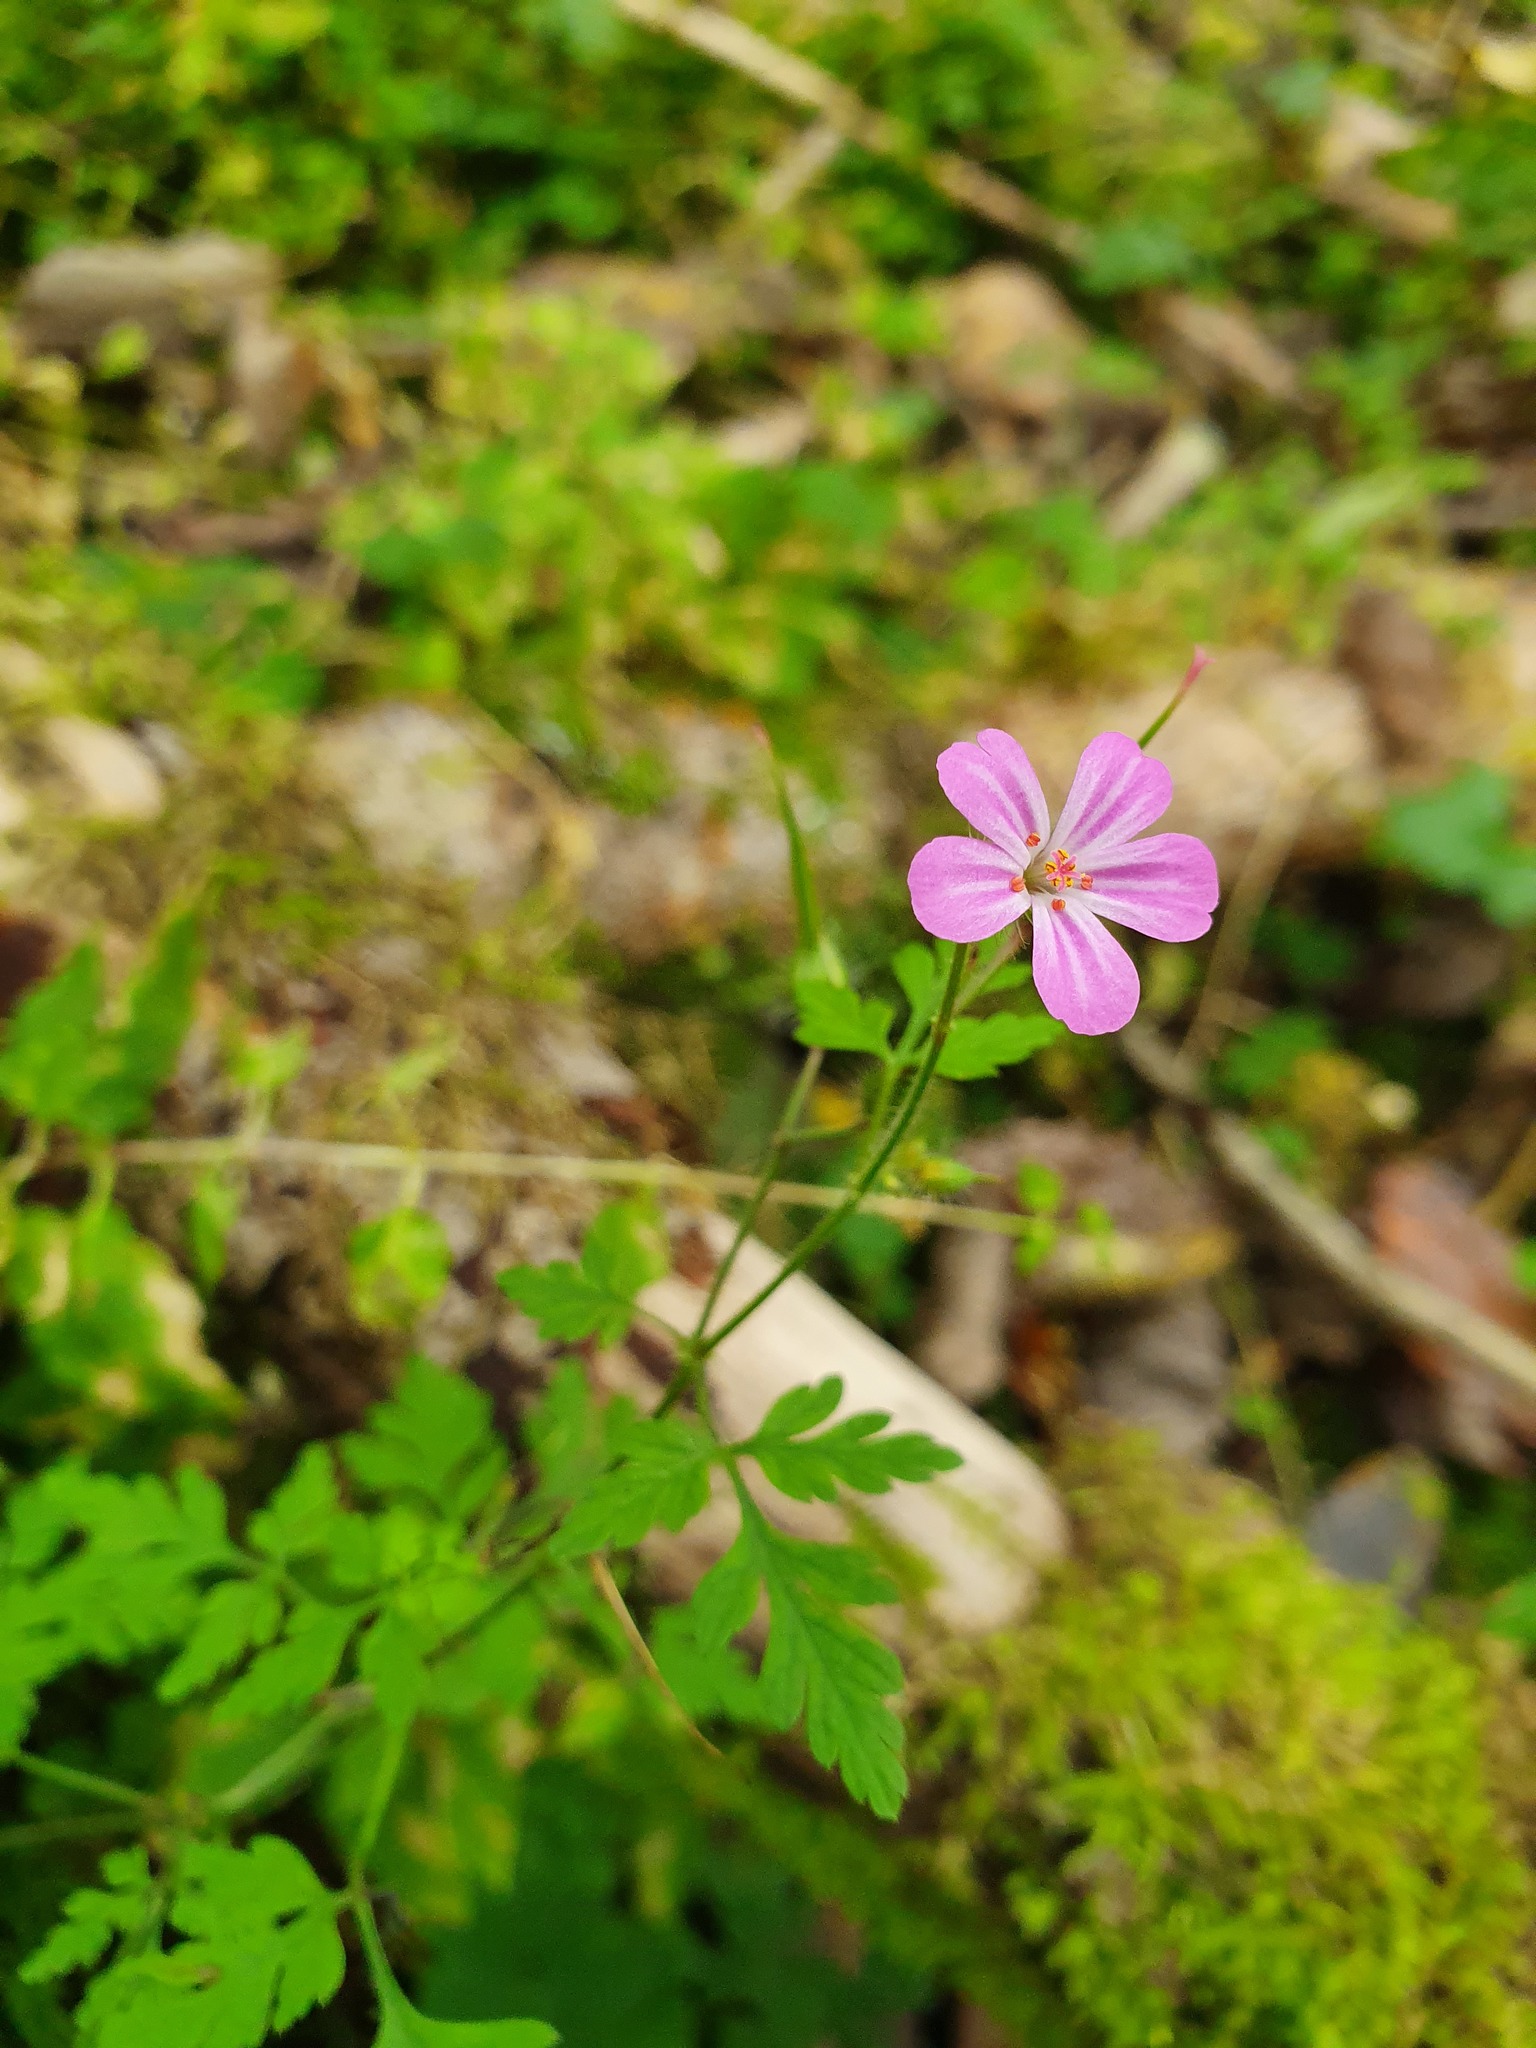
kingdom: Plantae
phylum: Tracheophyta
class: Magnoliopsida
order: Geraniales
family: Geraniaceae
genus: Geranium
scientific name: Geranium robertianum
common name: Herb-robert
